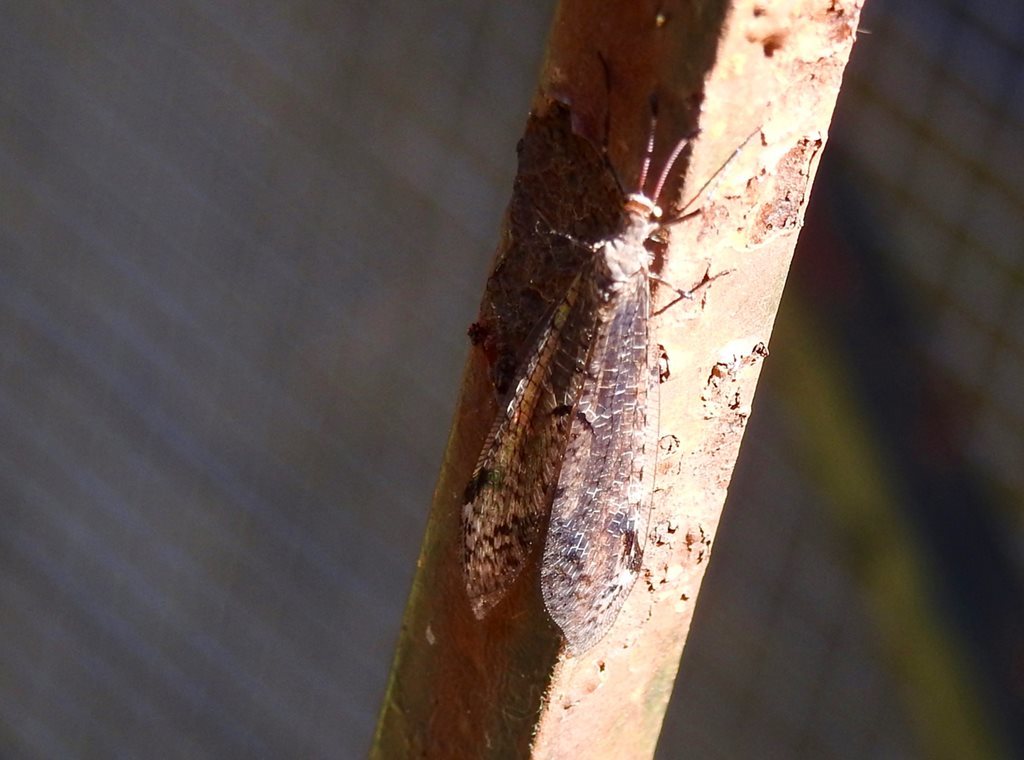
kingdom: Animalia
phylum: Arthropoda
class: Insecta
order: Neuroptera
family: Myrmeleontidae
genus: Dendroleon
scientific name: Dendroleon longipennis
